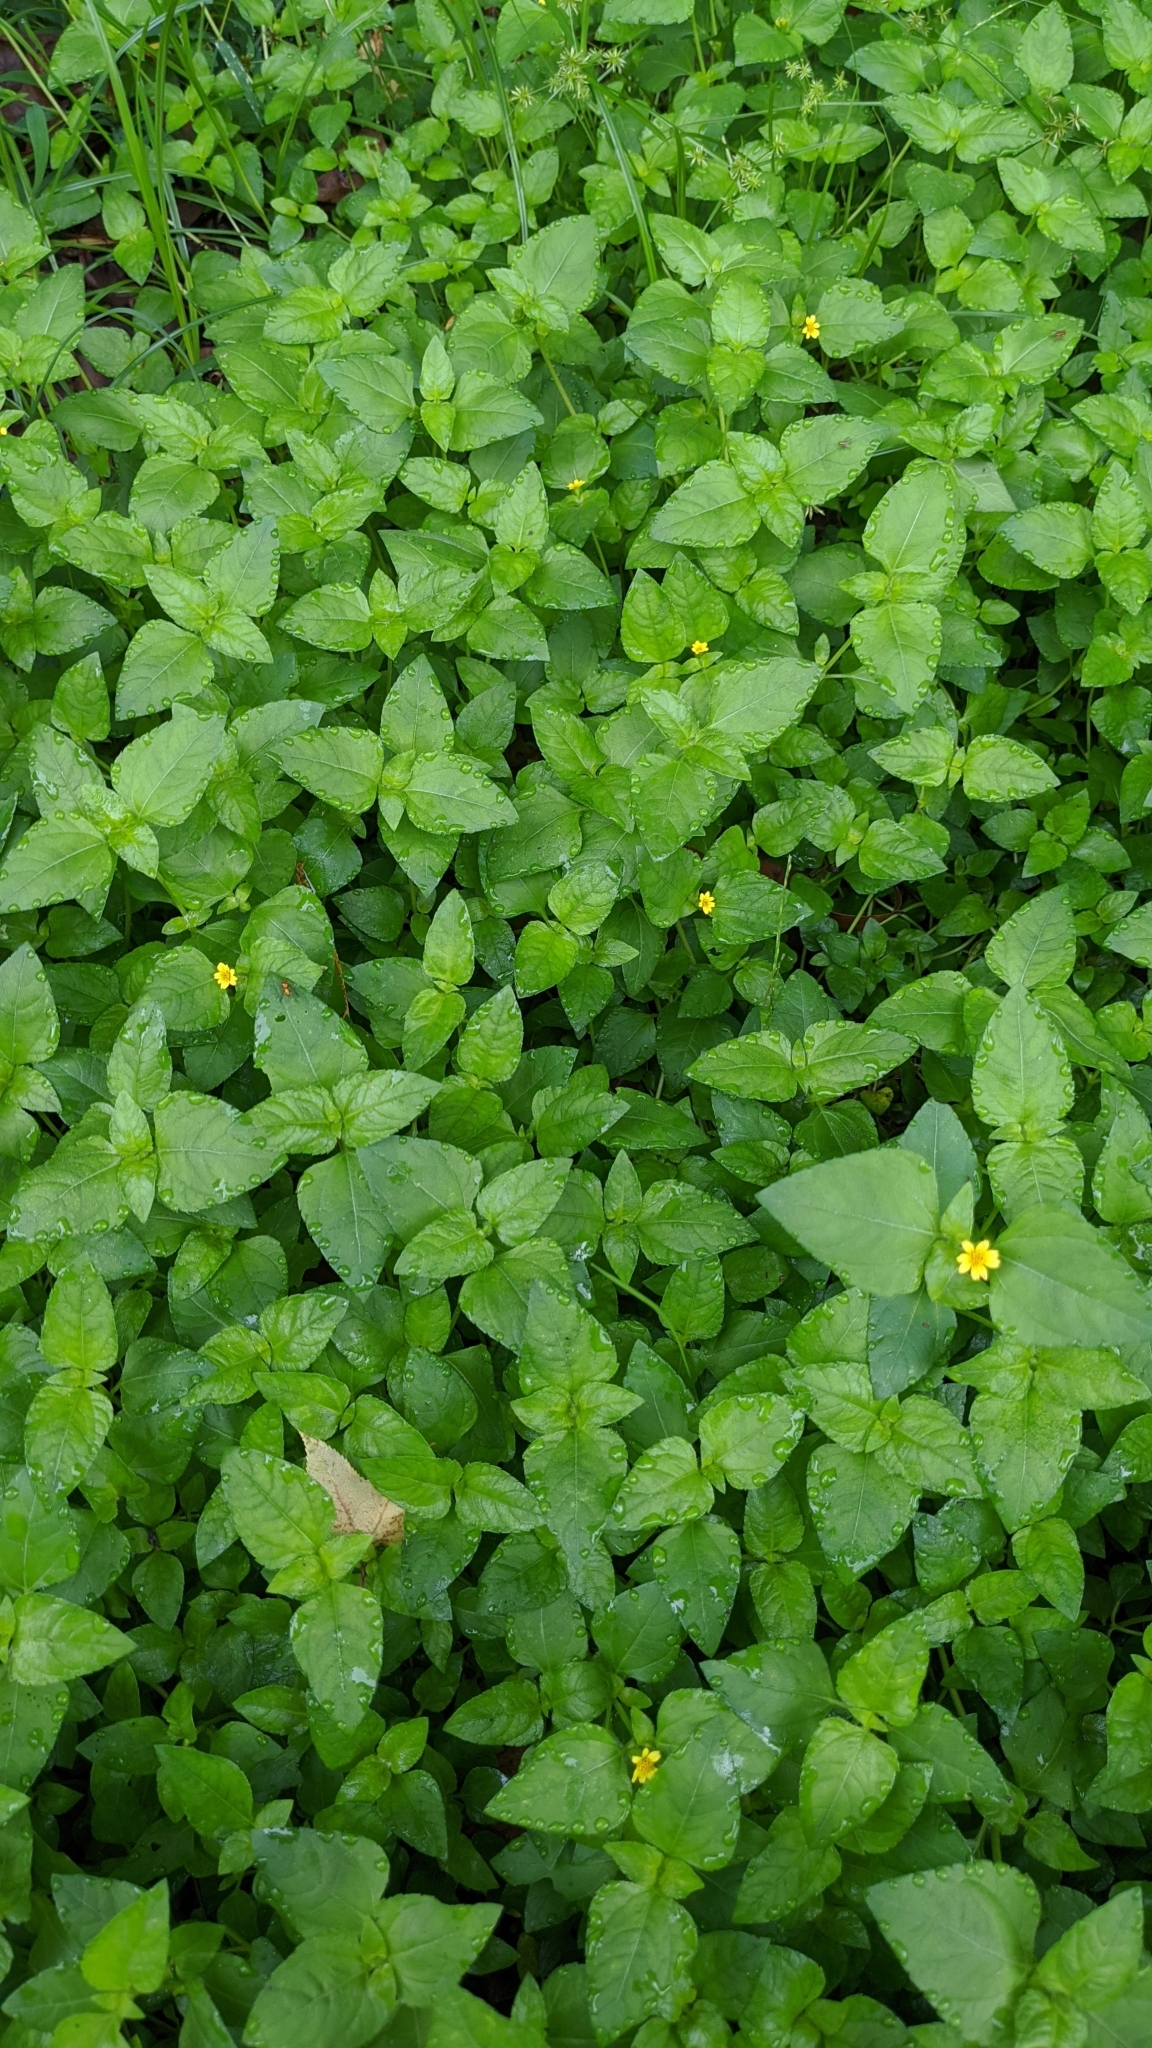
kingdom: Plantae
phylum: Tracheophyta
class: Magnoliopsida
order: Asterales
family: Asteraceae
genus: Calyptocarpus
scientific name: Calyptocarpus vialis
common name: Straggler daisy
